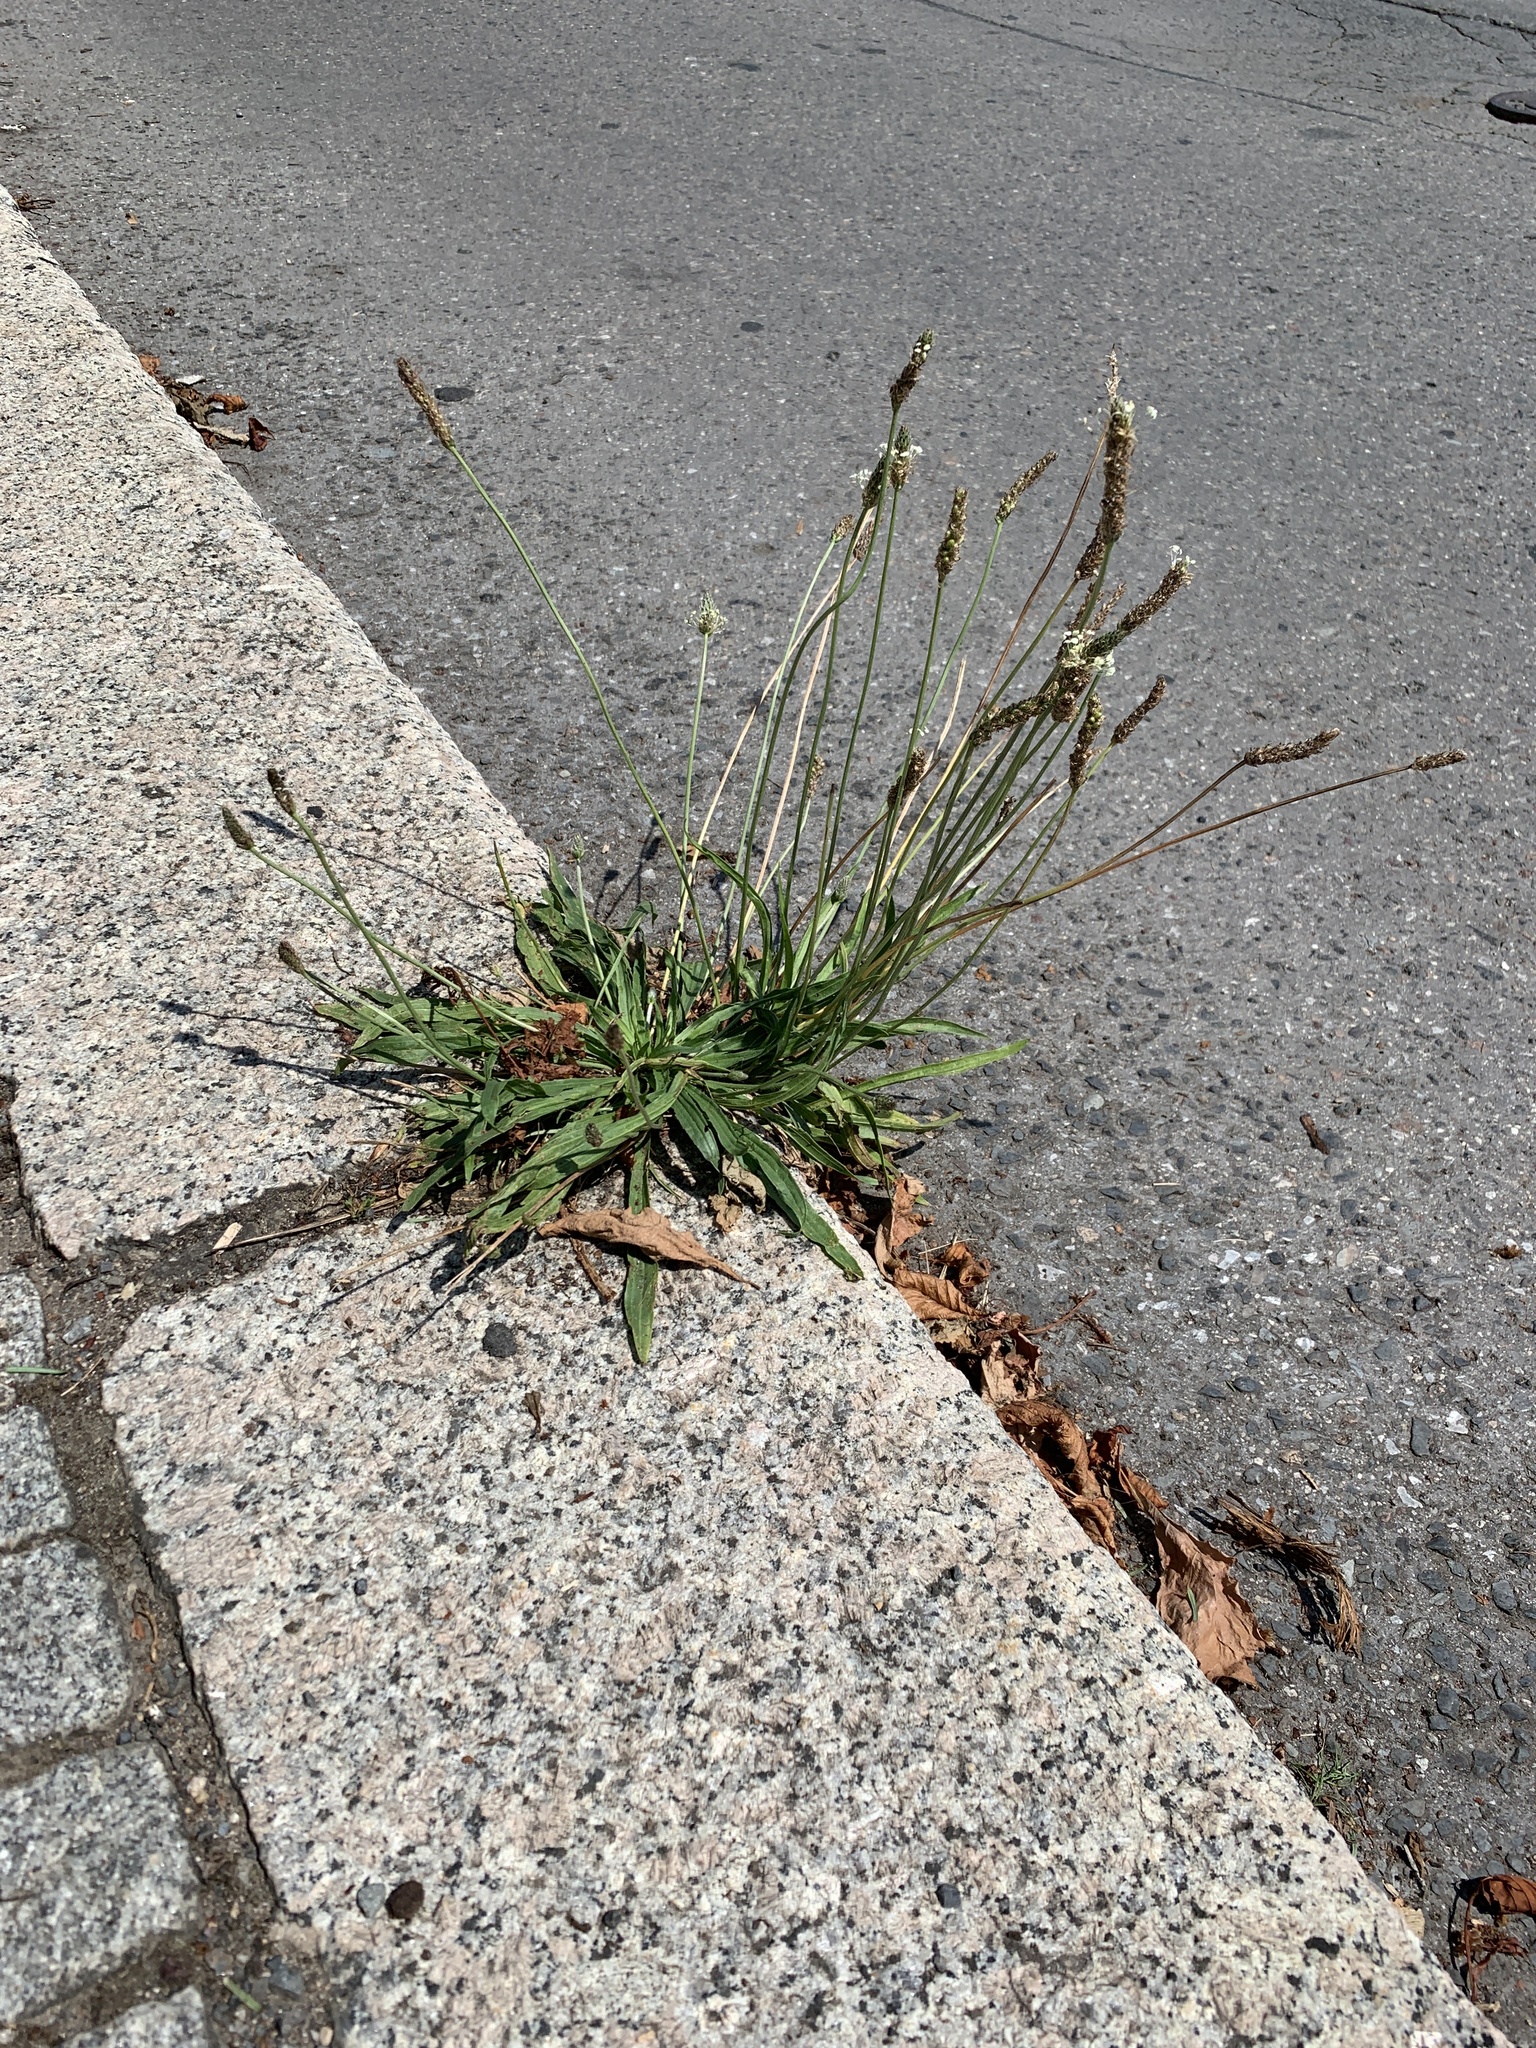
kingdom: Plantae
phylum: Tracheophyta
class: Magnoliopsida
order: Lamiales
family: Plantaginaceae
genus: Plantago
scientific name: Plantago lanceolata
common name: Ribwort plantain
